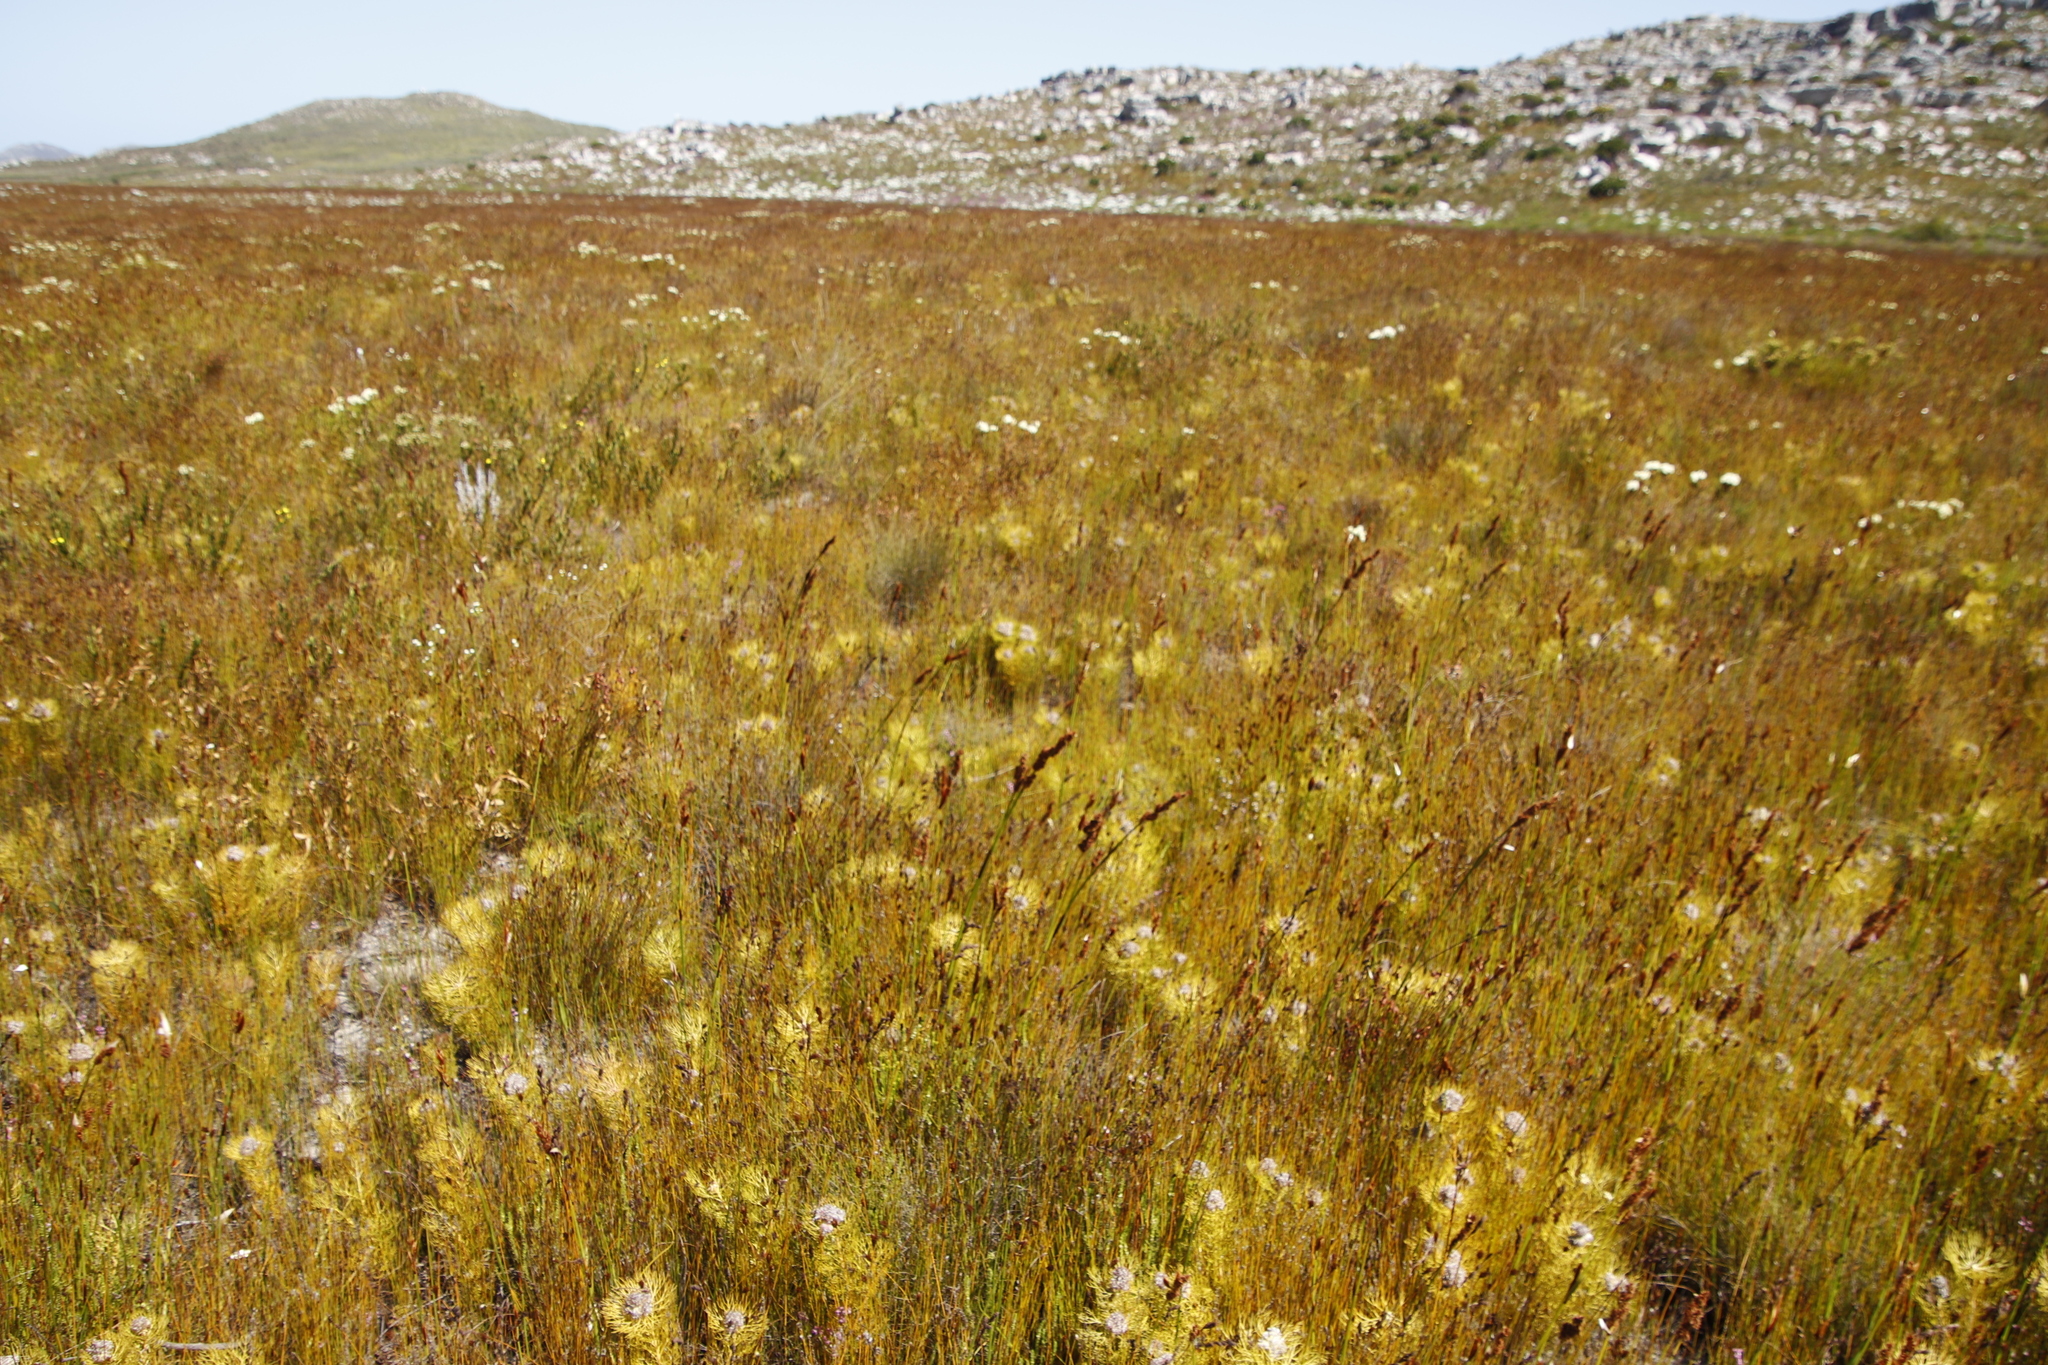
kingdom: Plantae
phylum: Tracheophyta
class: Magnoliopsida
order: Proteales
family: Proteaceae
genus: Serruria
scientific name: Serruria glomerata
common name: Cluster spiderhead
